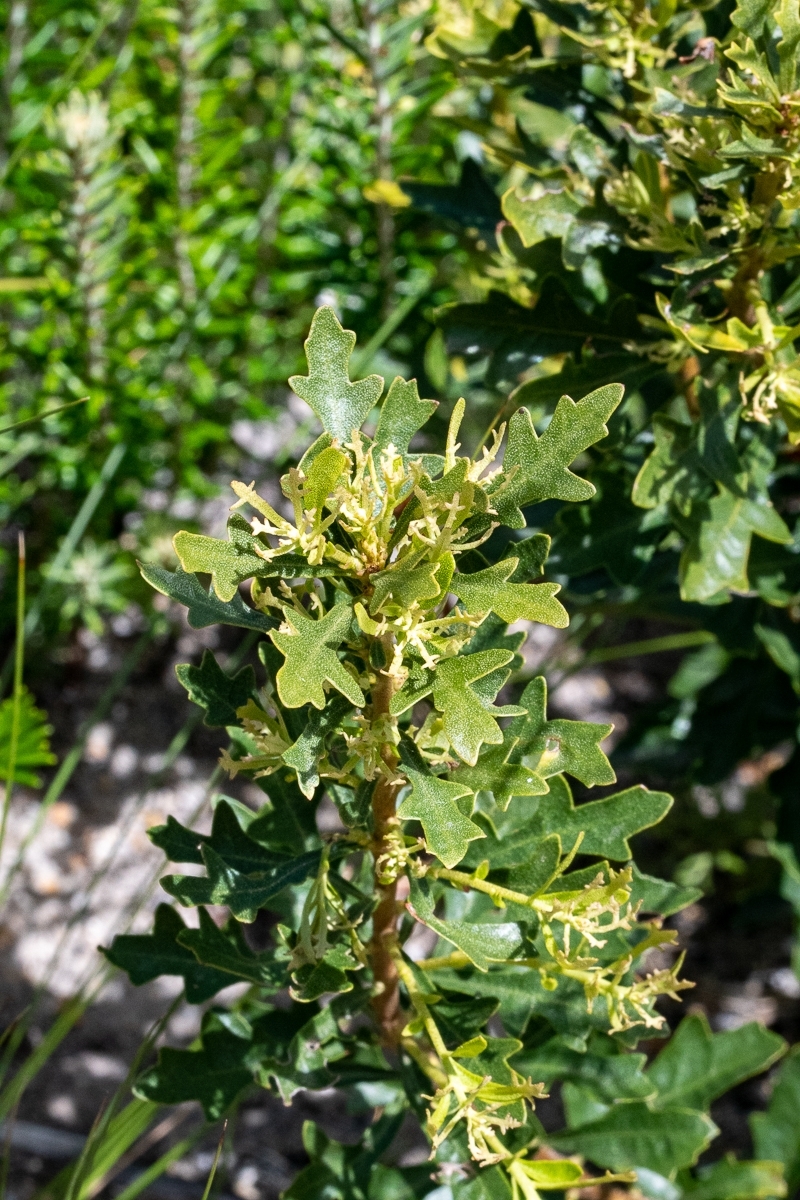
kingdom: Plantae
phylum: Tracheophyta
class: Magnoliopsida
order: Fagales
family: Myricaceae
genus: Morella
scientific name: Morella quercifolia
